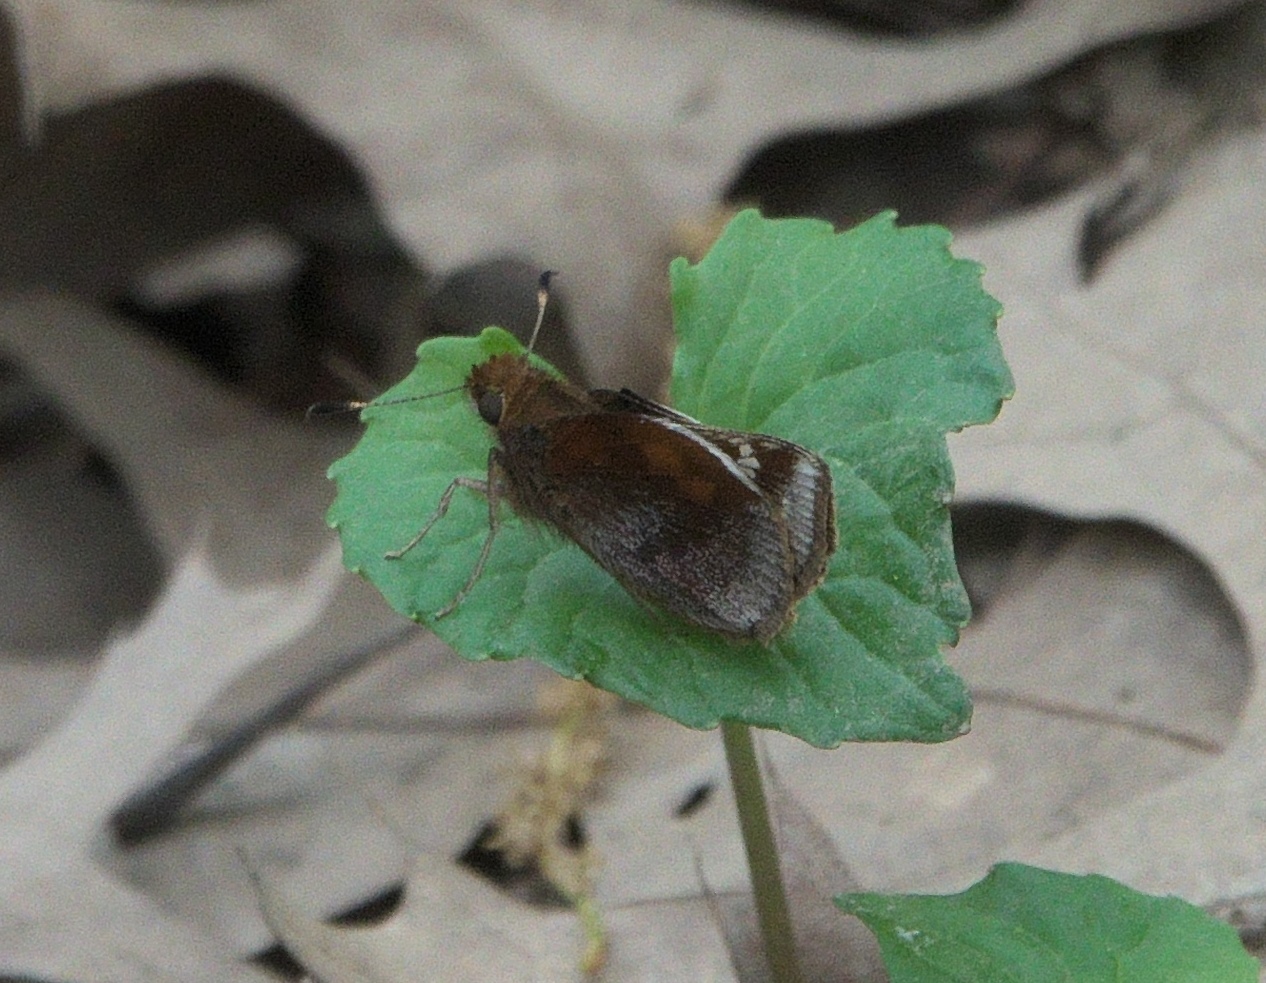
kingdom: Animalia
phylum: Arthropoda
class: Insecta
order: Lepidoptera
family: Hesperiidae
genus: Lon
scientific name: Lon zabulon
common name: Zabulon skipper
